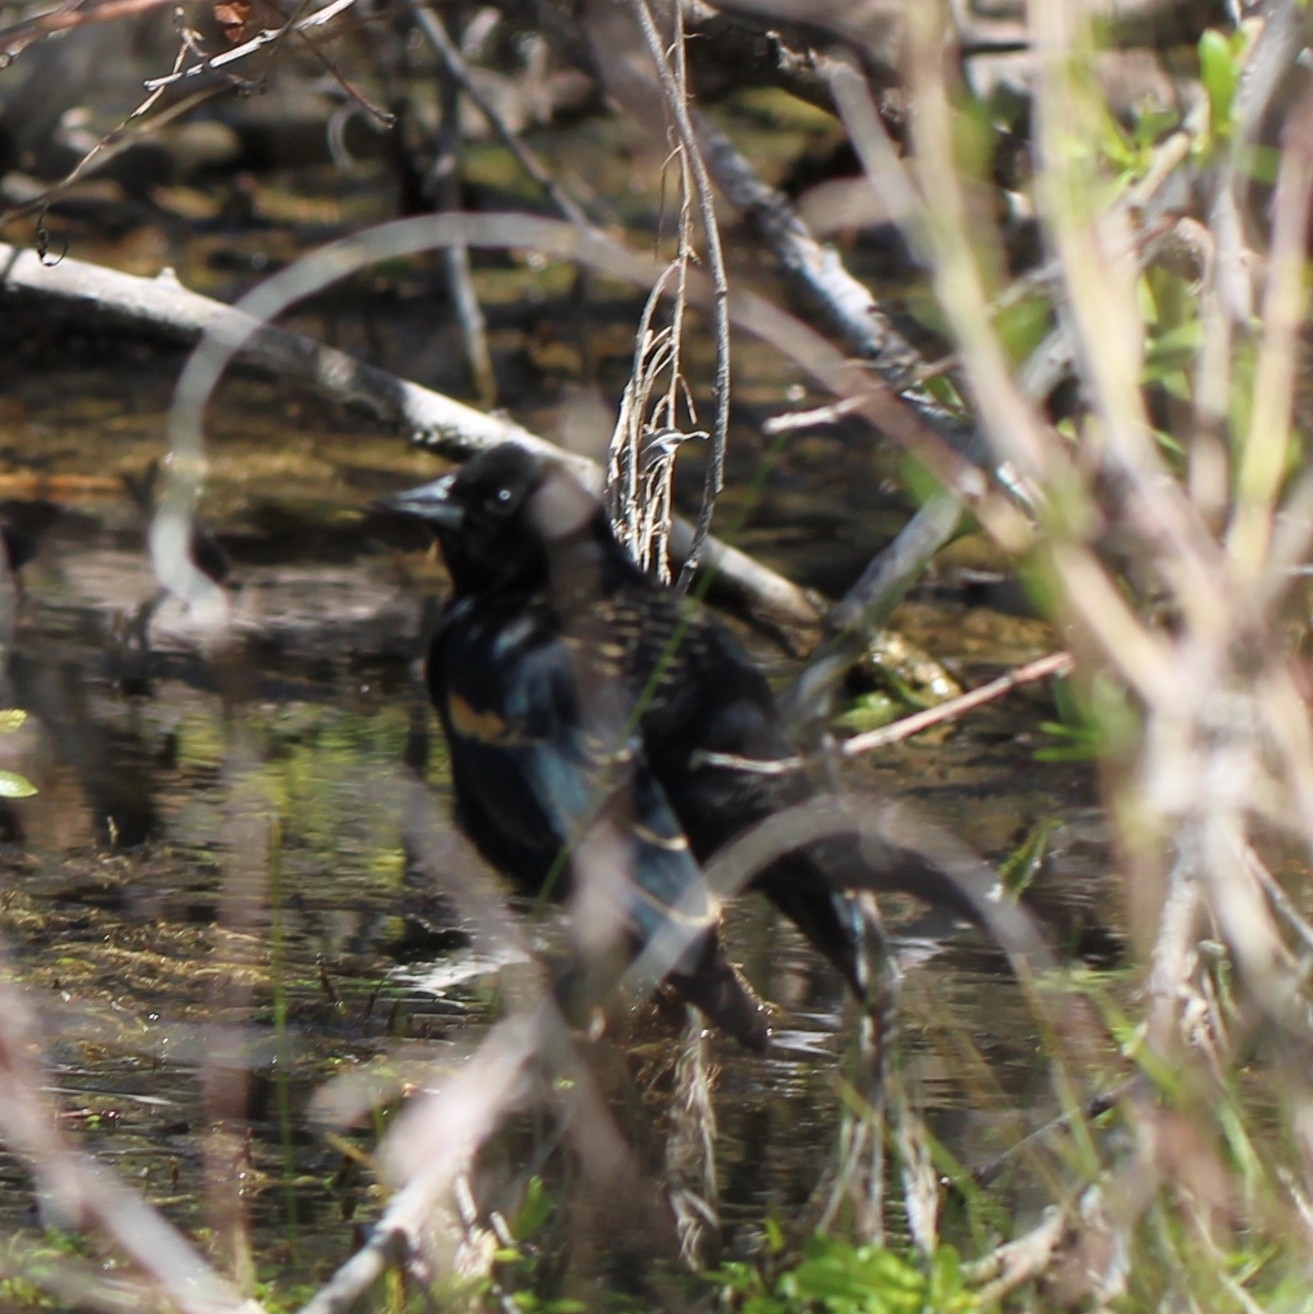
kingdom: Animalia
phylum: Chordata
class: Aves
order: Passeriformes
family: Icteridae
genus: Agelaius
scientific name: Agelaius phoeniceus
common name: Red-winged blackbird
